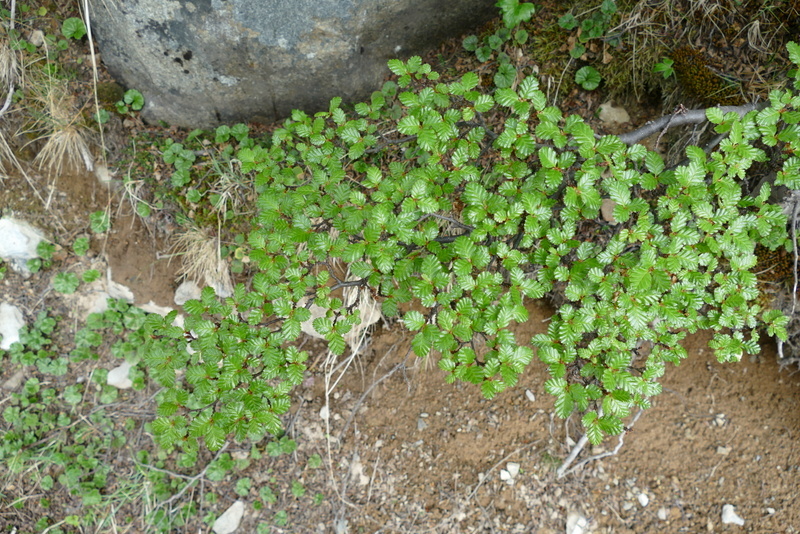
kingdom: Plantae
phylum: Tracheophyta
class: Magnoliopsida
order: Fagales
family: Nothofagaceae
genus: Nothofagus
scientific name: Nothofagus pumilio
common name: Lenga beech
